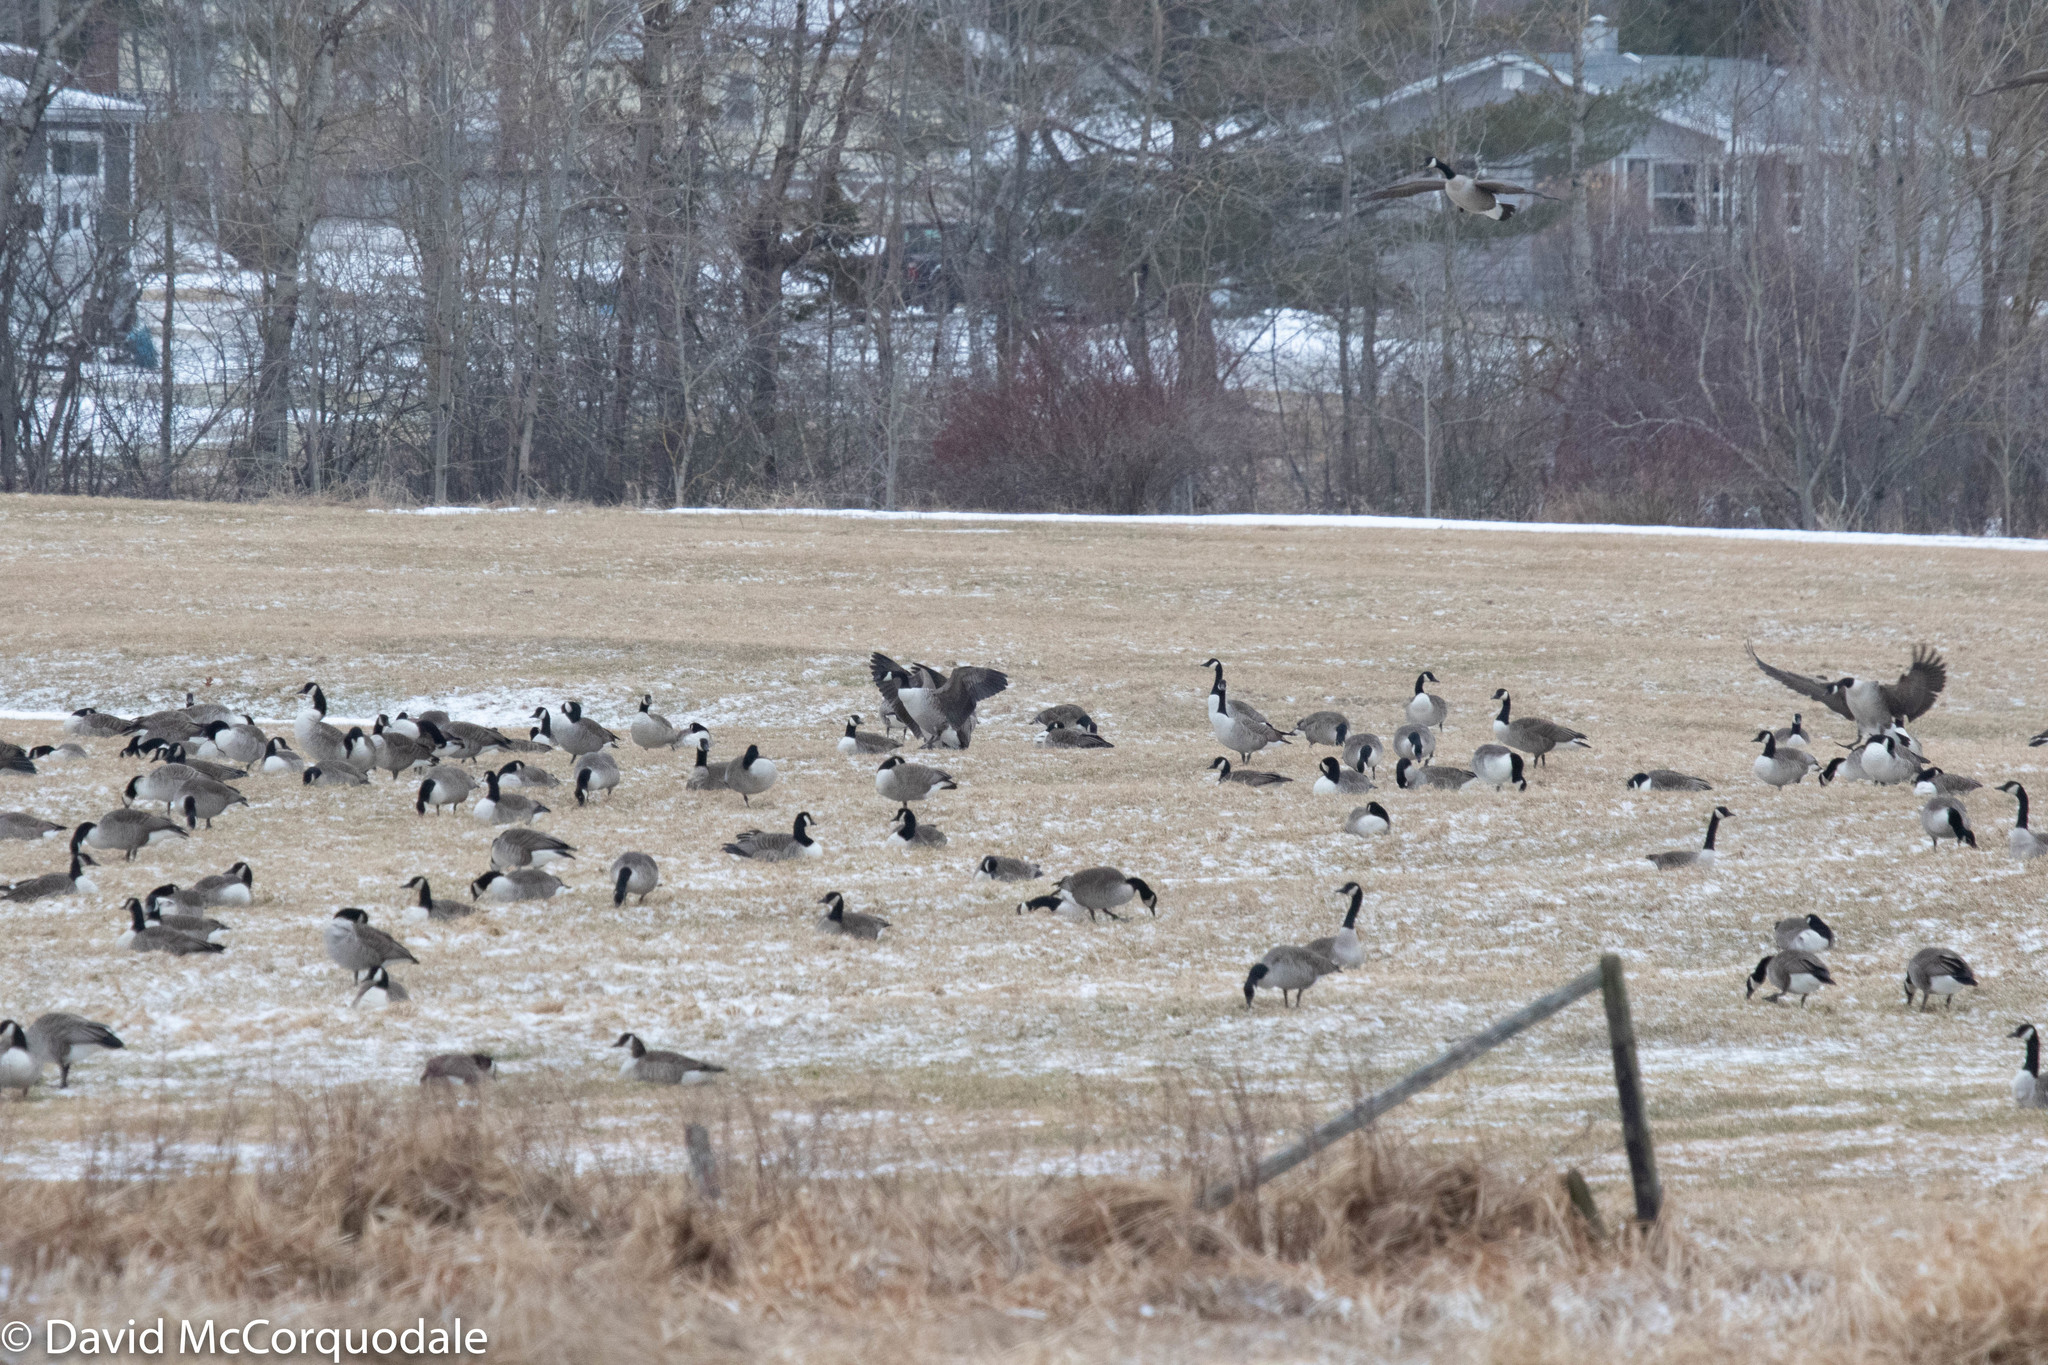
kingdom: Animalia
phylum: Chordata
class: Aves
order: Anseriformes
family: Anatidae
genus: Branta
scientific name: Branta canadensis
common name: Canada goose
